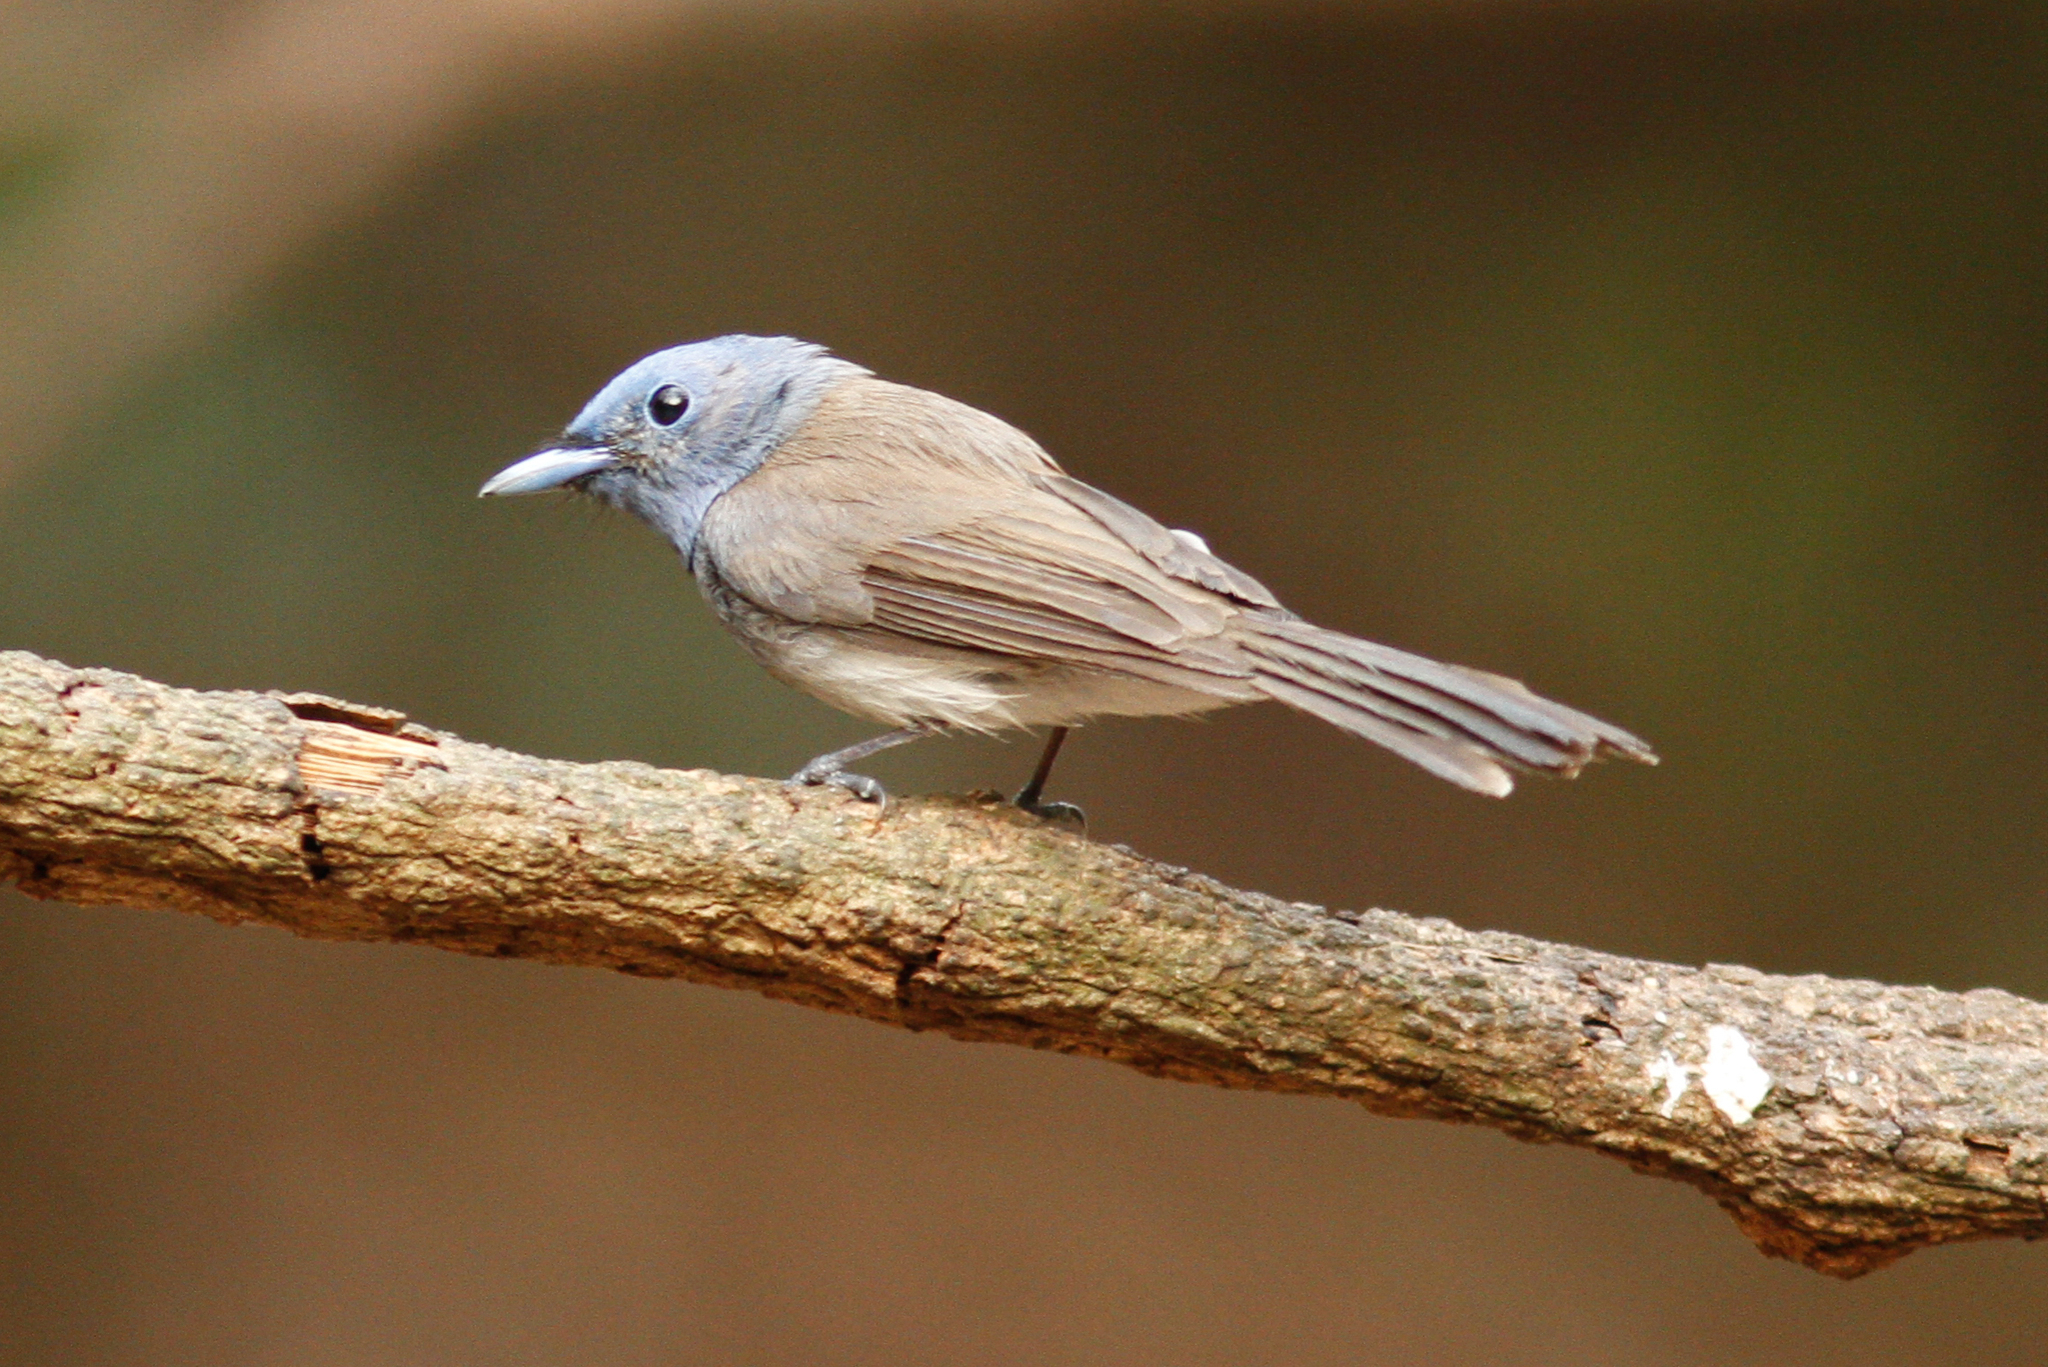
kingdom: Animalia
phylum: Chordata
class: Aves
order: Passeriformes
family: Monarchidae
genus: Hypothymis
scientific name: Hypothymis azurea
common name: Black-naped monarch
